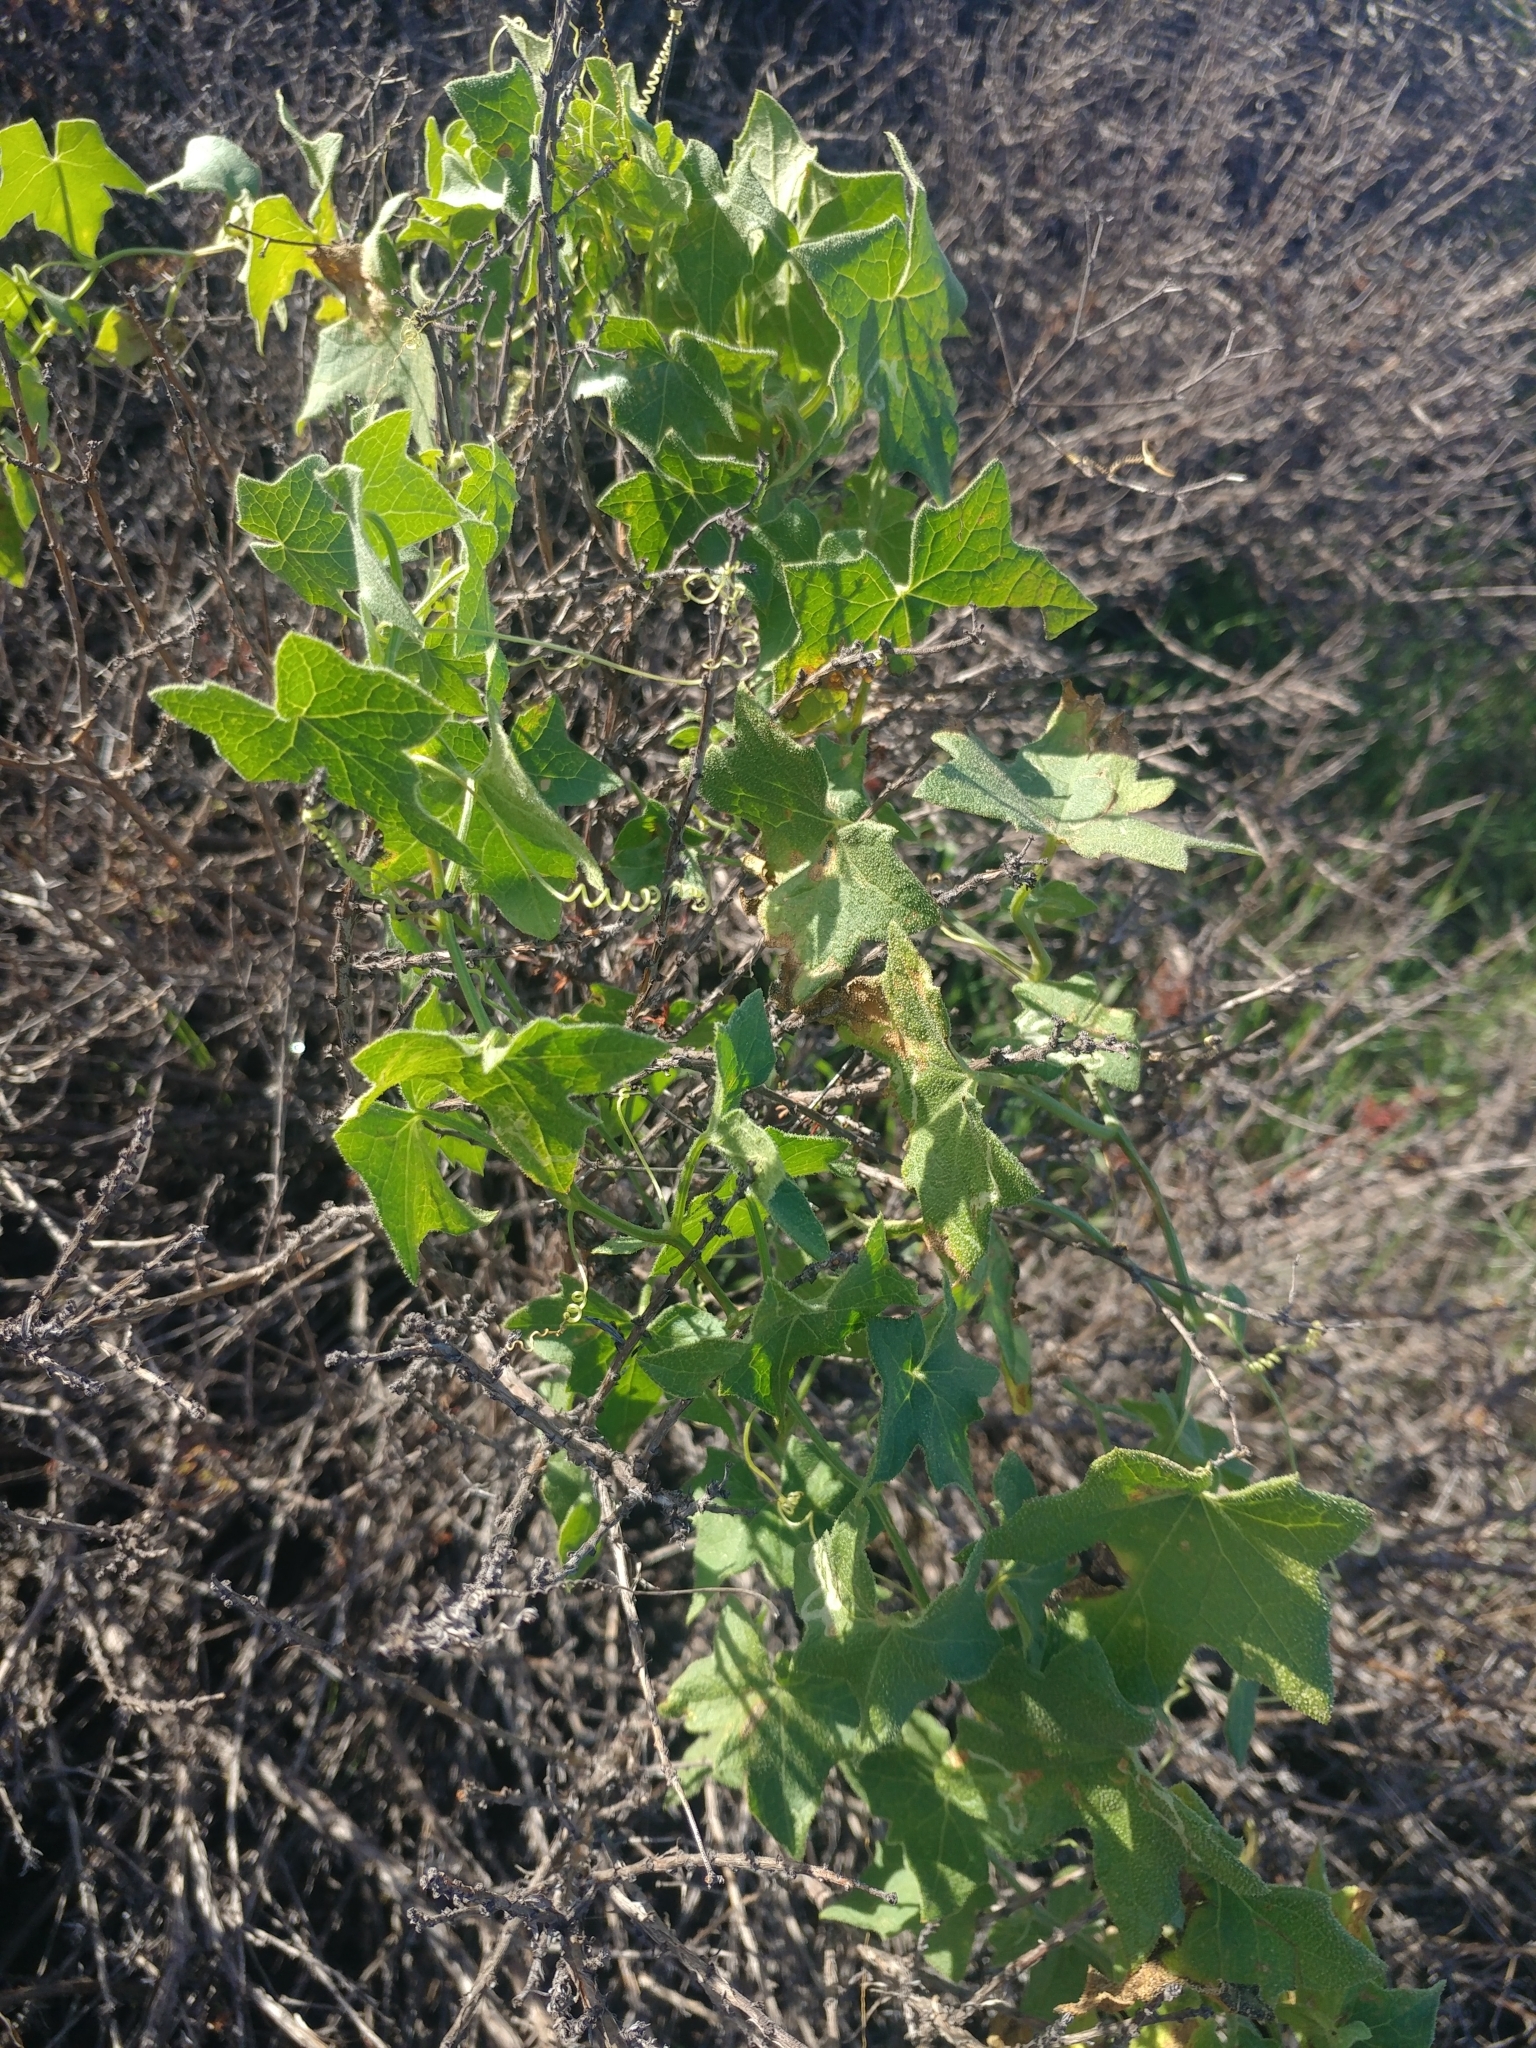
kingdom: Plantae
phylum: Tracheophyta
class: Magnoliopsida
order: Cucurbitales
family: Cucurbitaceae
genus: Marah
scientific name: Marah macrocarpa
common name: Cucamonga manroot
